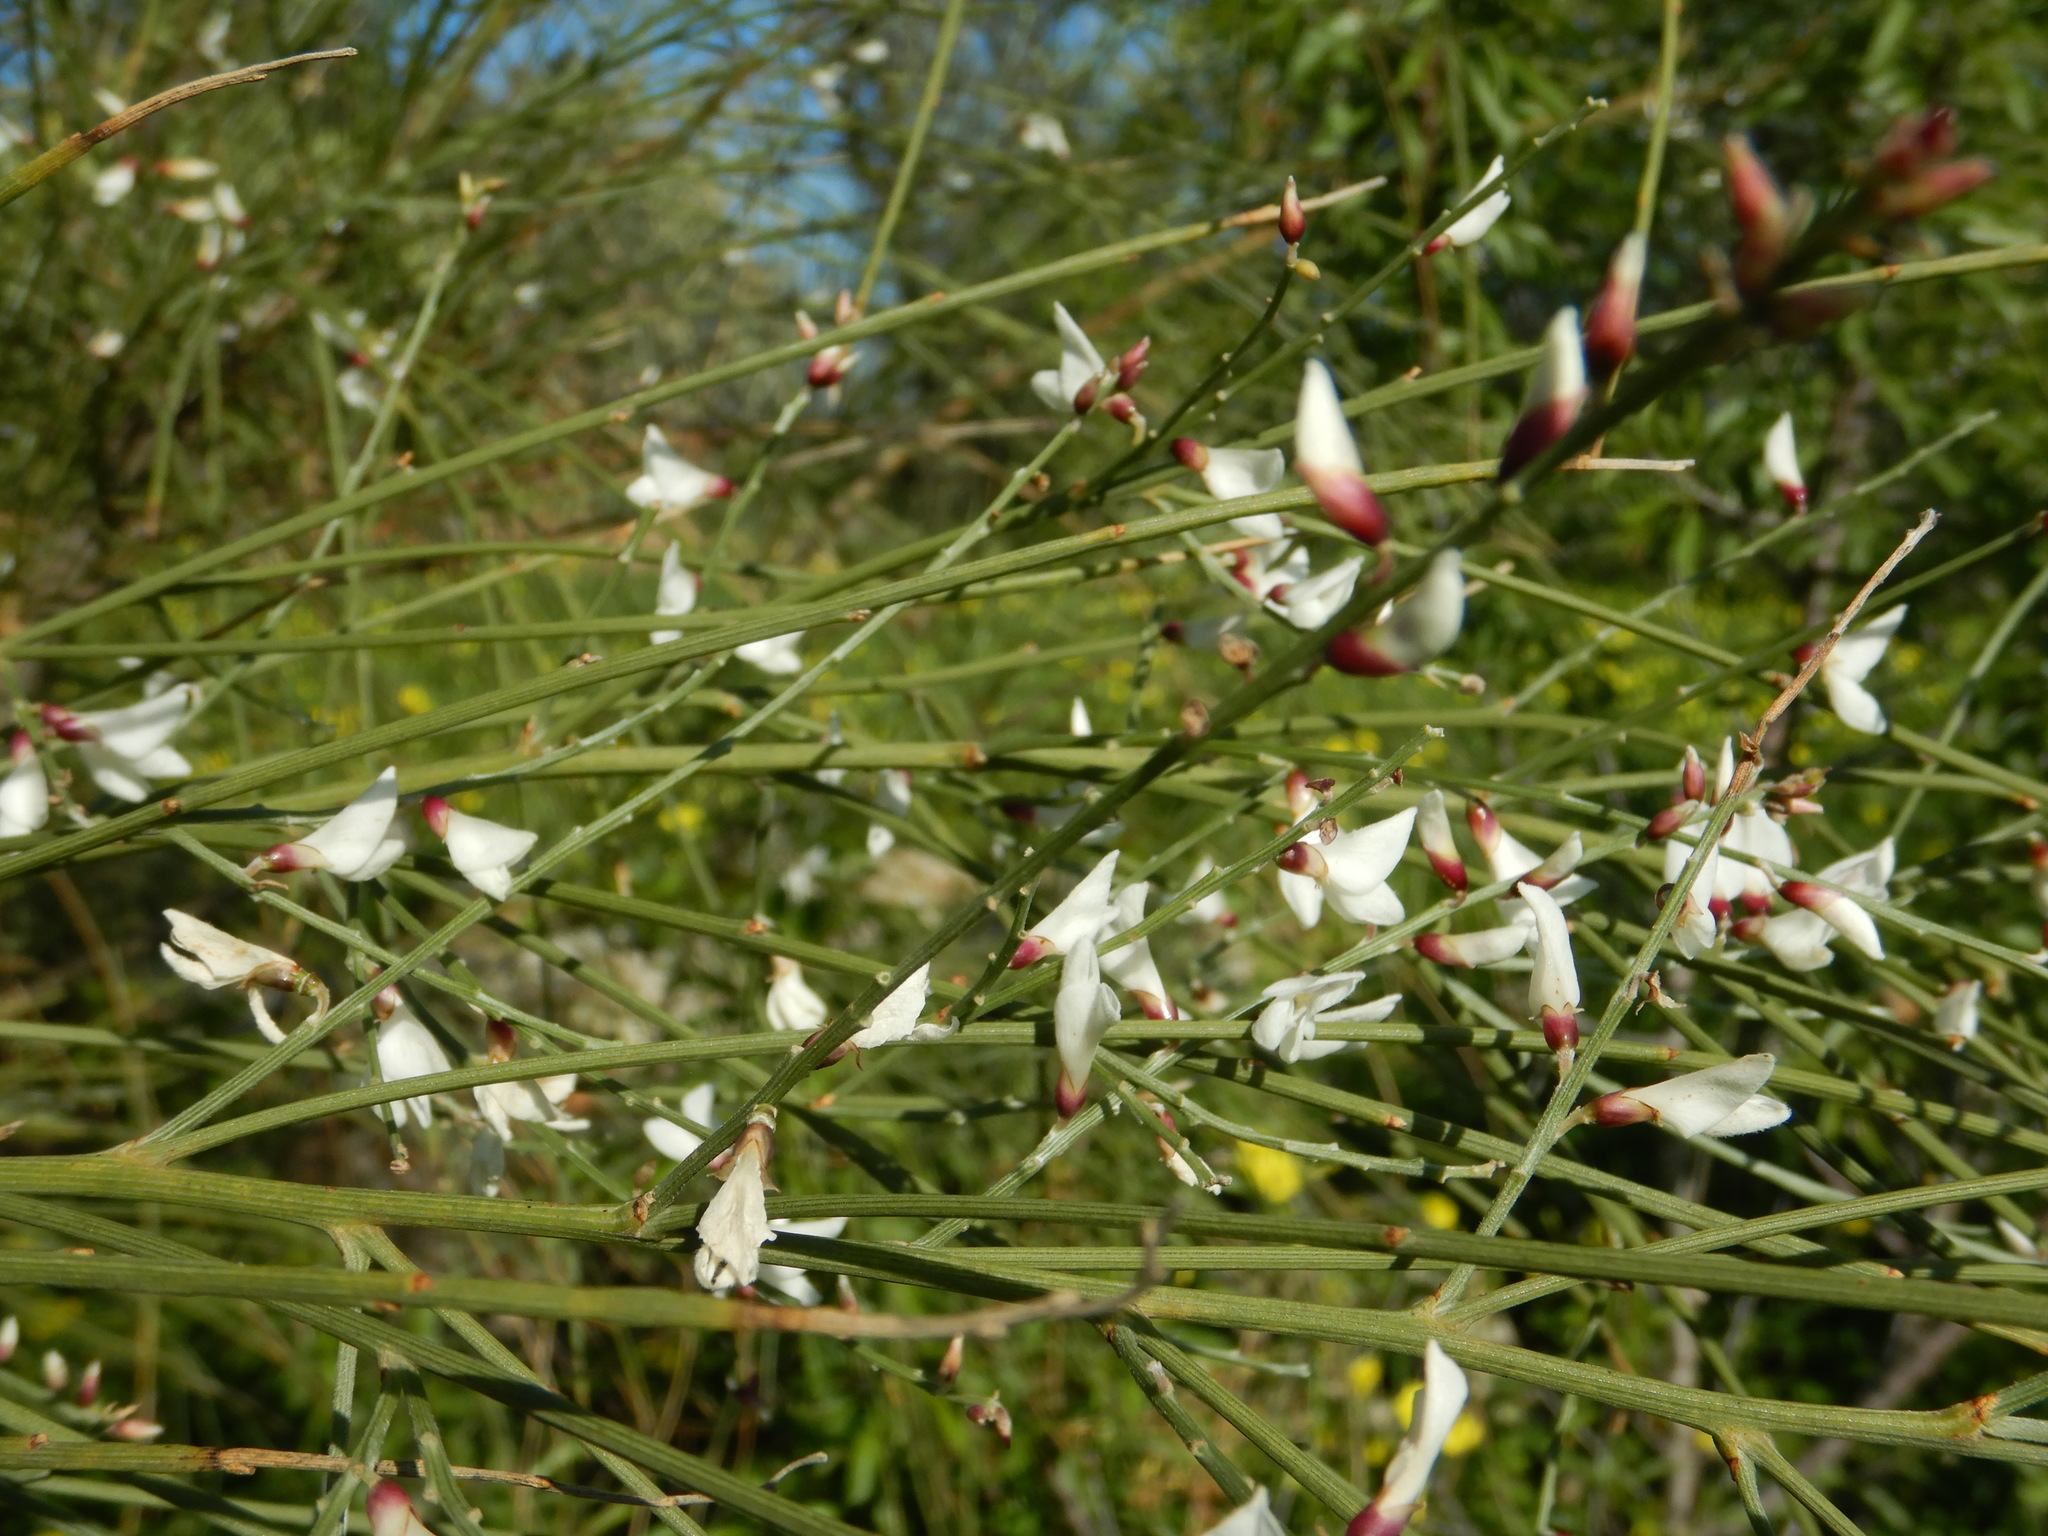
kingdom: Plantae
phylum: Tracheophyta
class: Magnoliopsida
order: Fabales
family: Fabaceae
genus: Retama
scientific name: Retama monosperma
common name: Bridal broom
